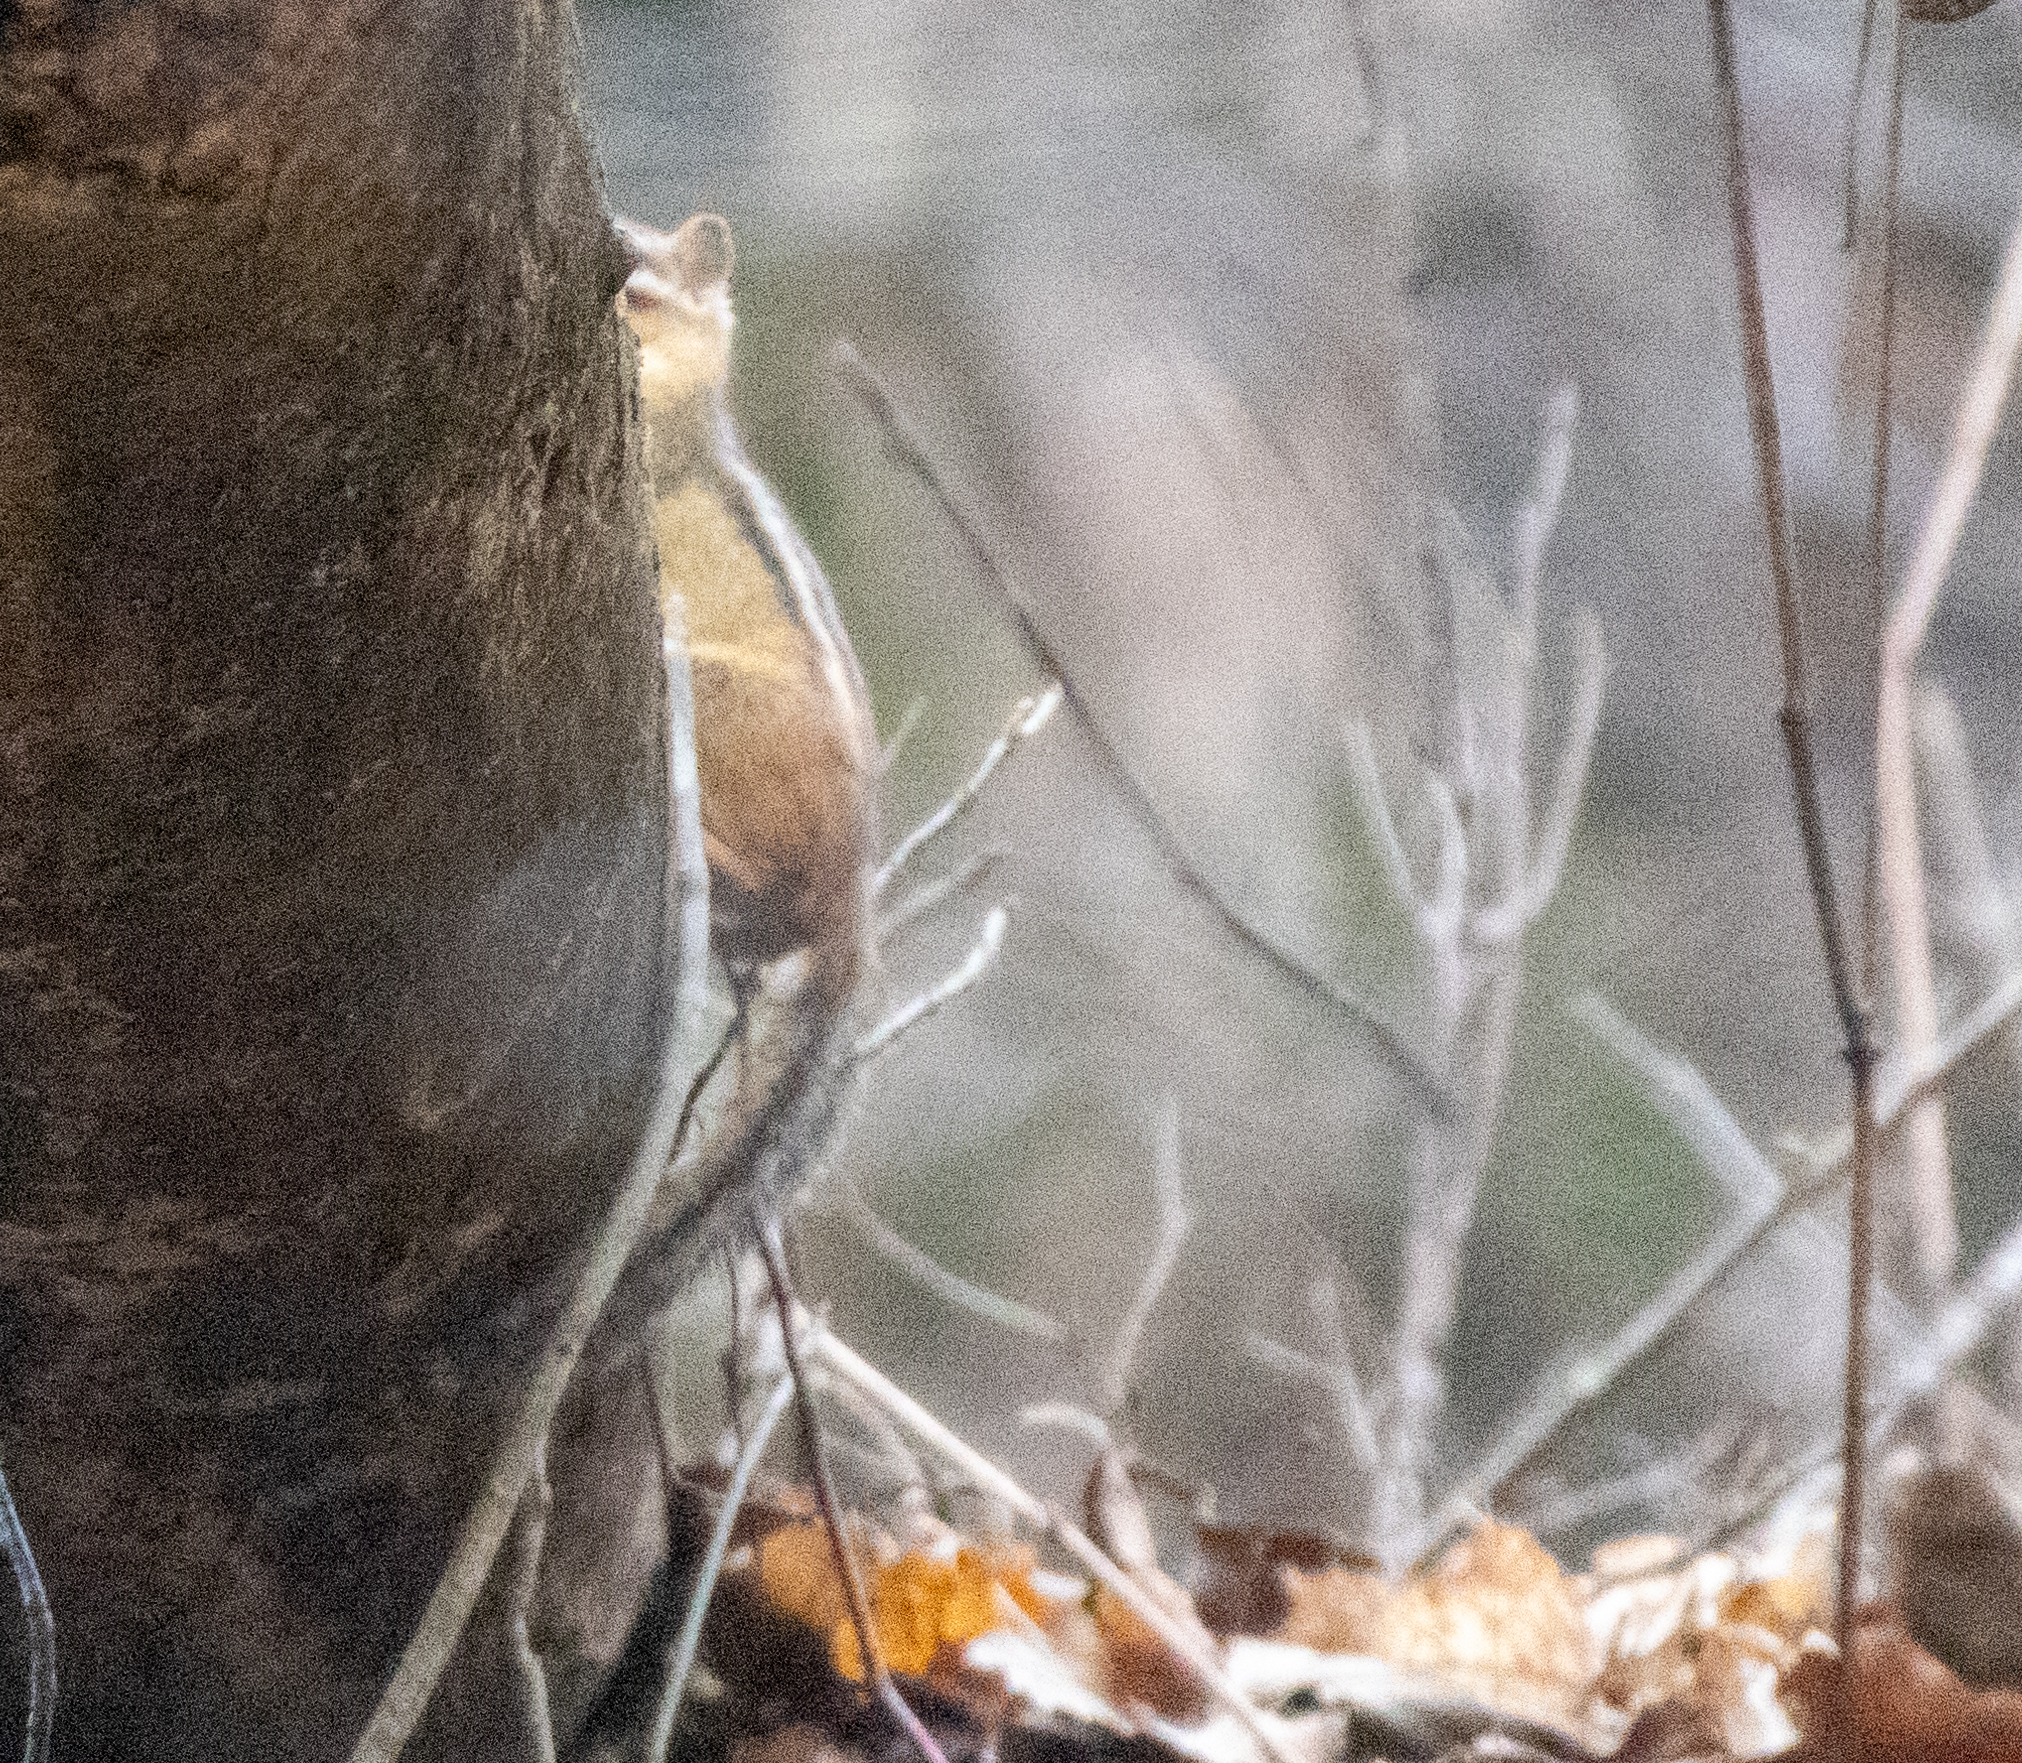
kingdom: Animalia
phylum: Chordata
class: Mammalia
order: Rodentia
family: Sciuridae
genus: Tamias
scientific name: Tamias striatus
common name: Eastern chipmunk
